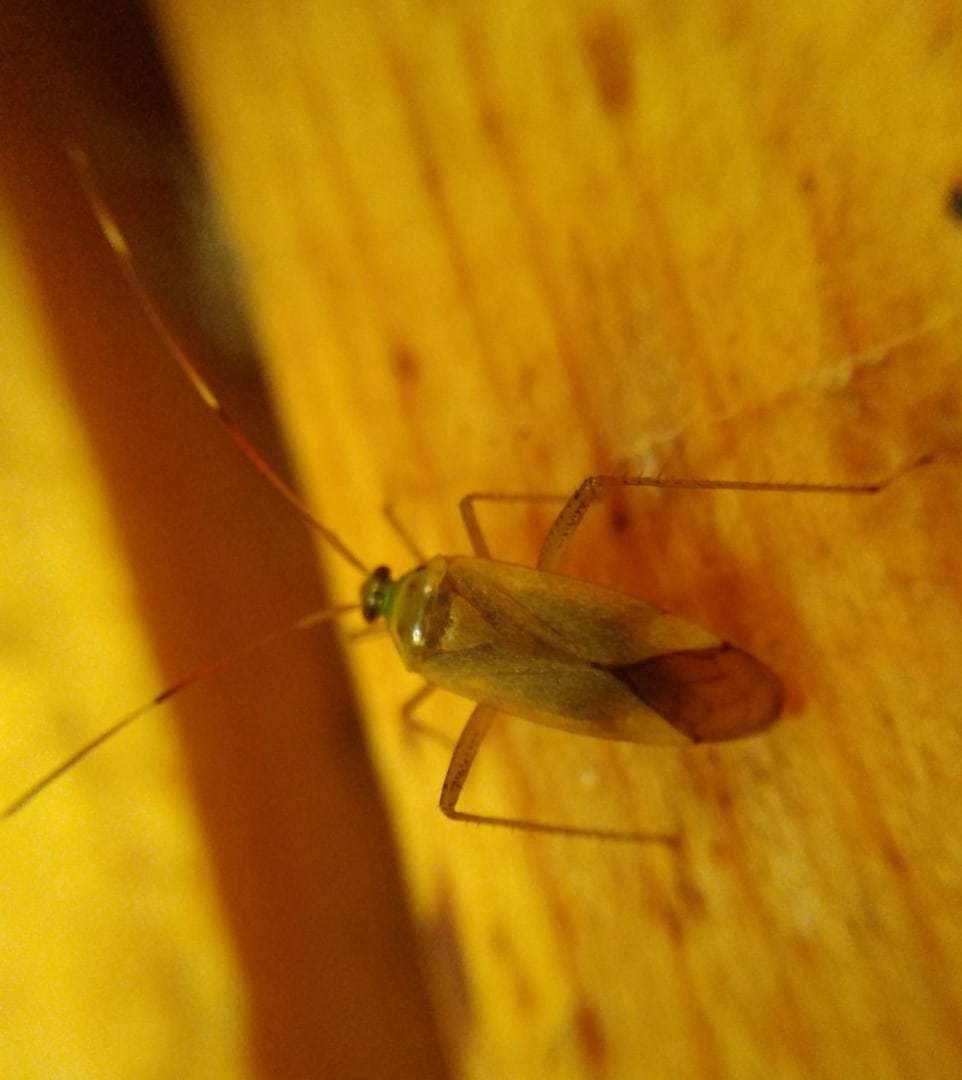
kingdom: Animalia
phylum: Arthropoda
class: Insecta
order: Hemiptera
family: Miridae
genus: Adelphocoris
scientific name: Adelphocoris quadripunctatus
